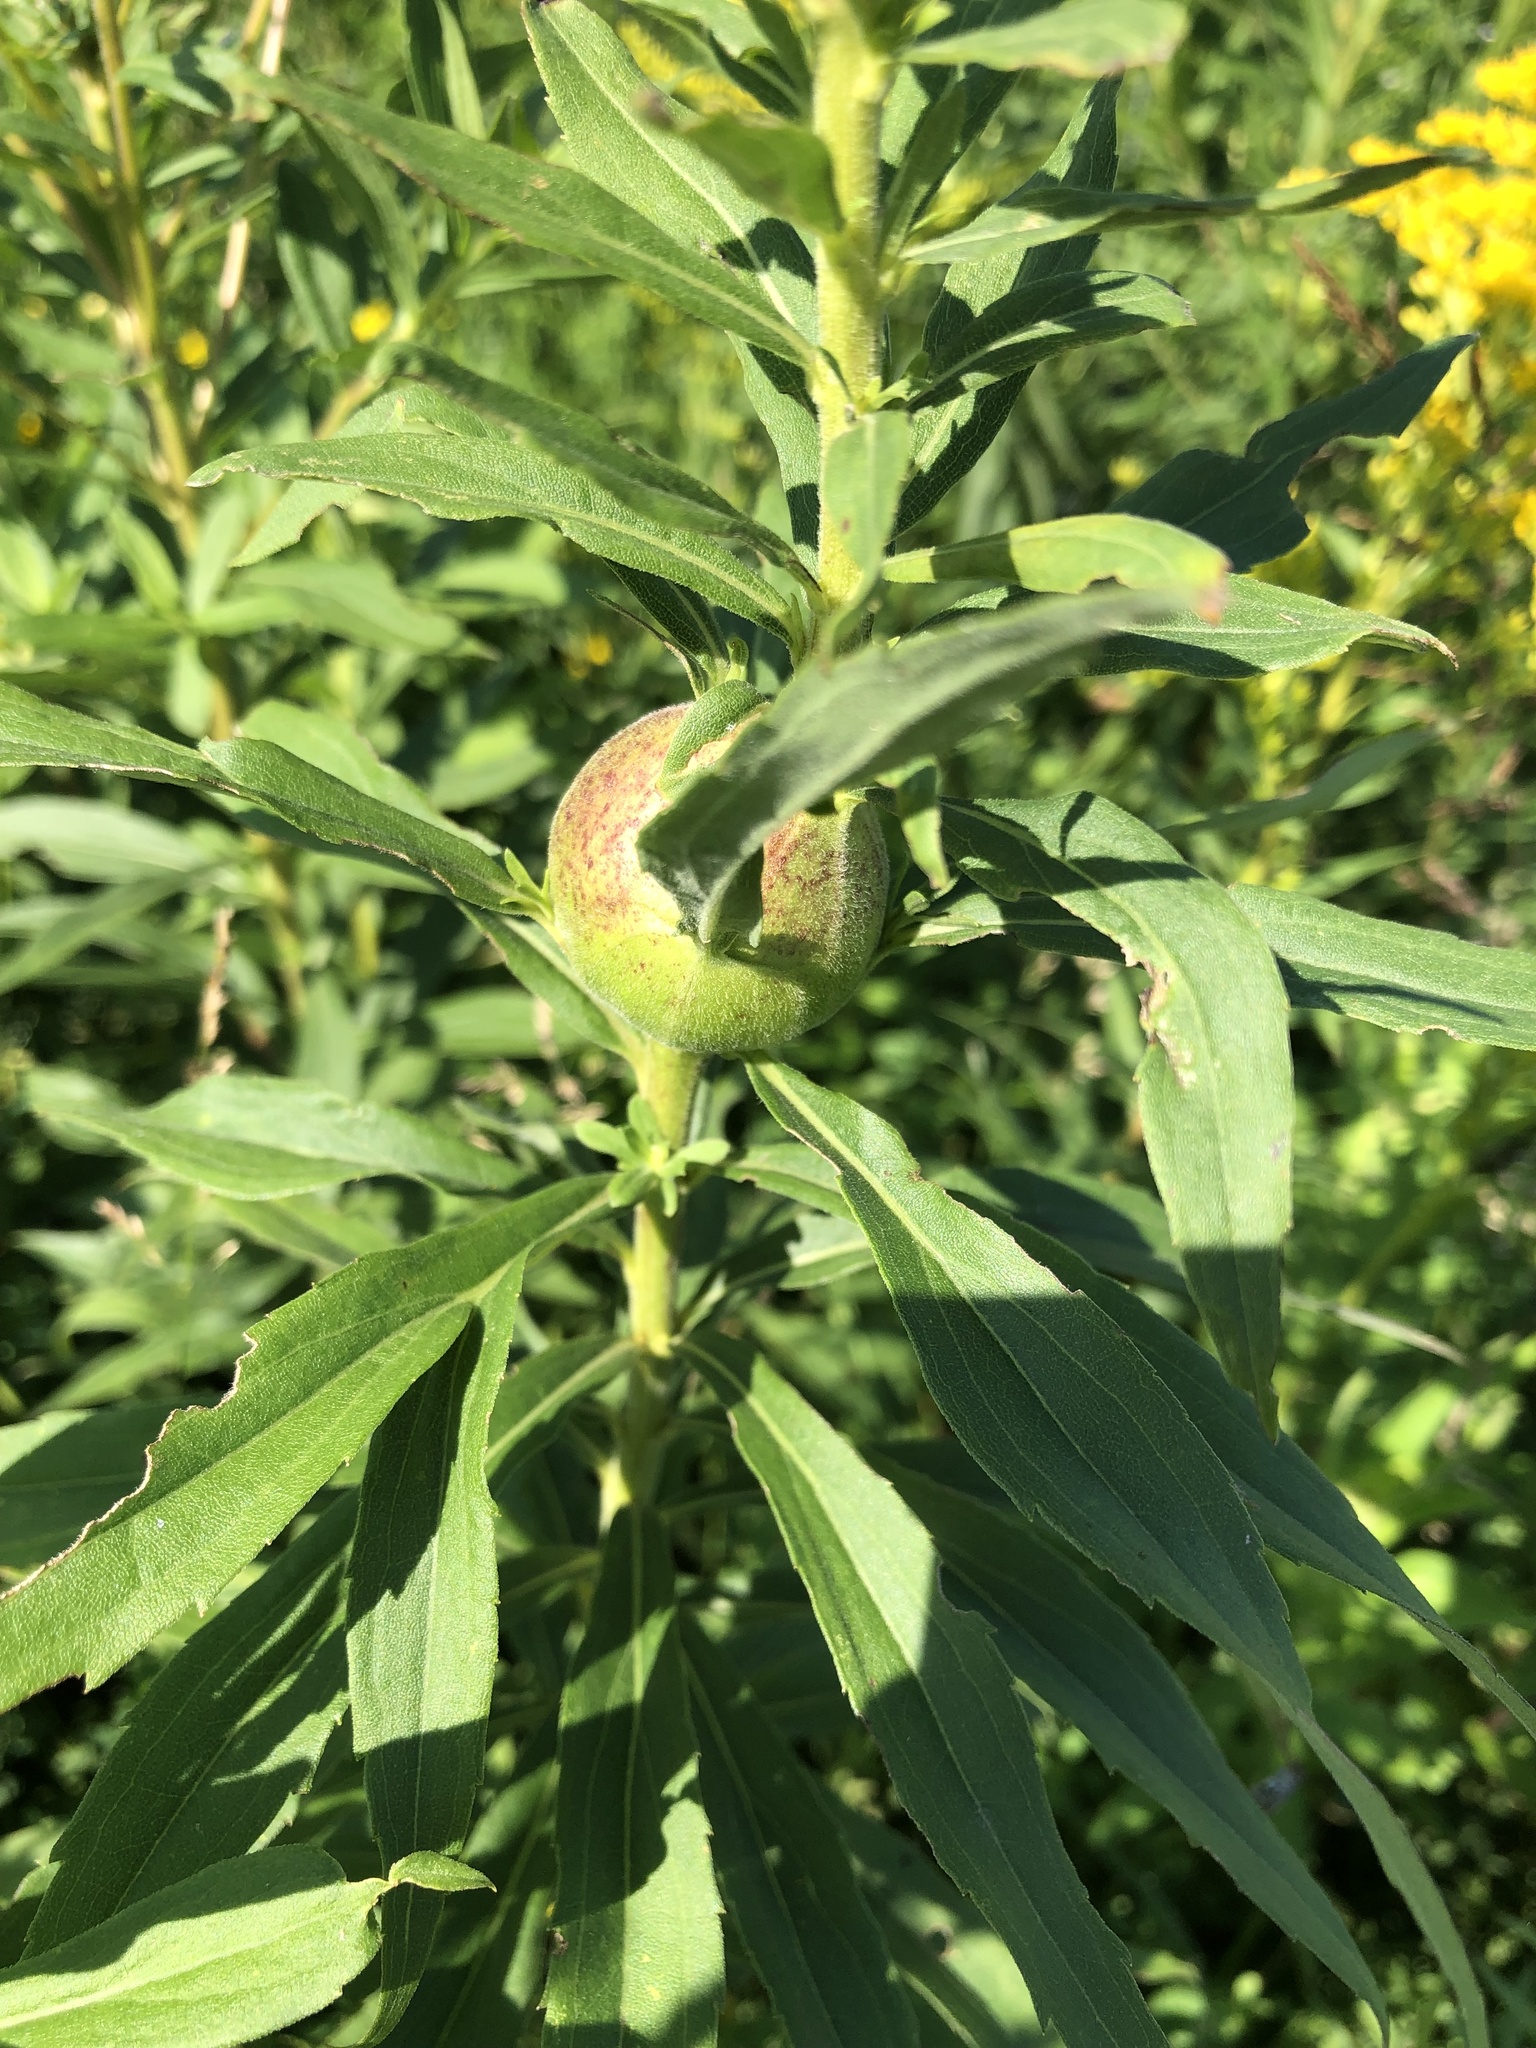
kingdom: Animalia
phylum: Arthropoda
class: Insecta
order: Diptera
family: Tephritidae
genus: Eurosta
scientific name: Eurosta solidaginis
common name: Goldenrod gall fly
